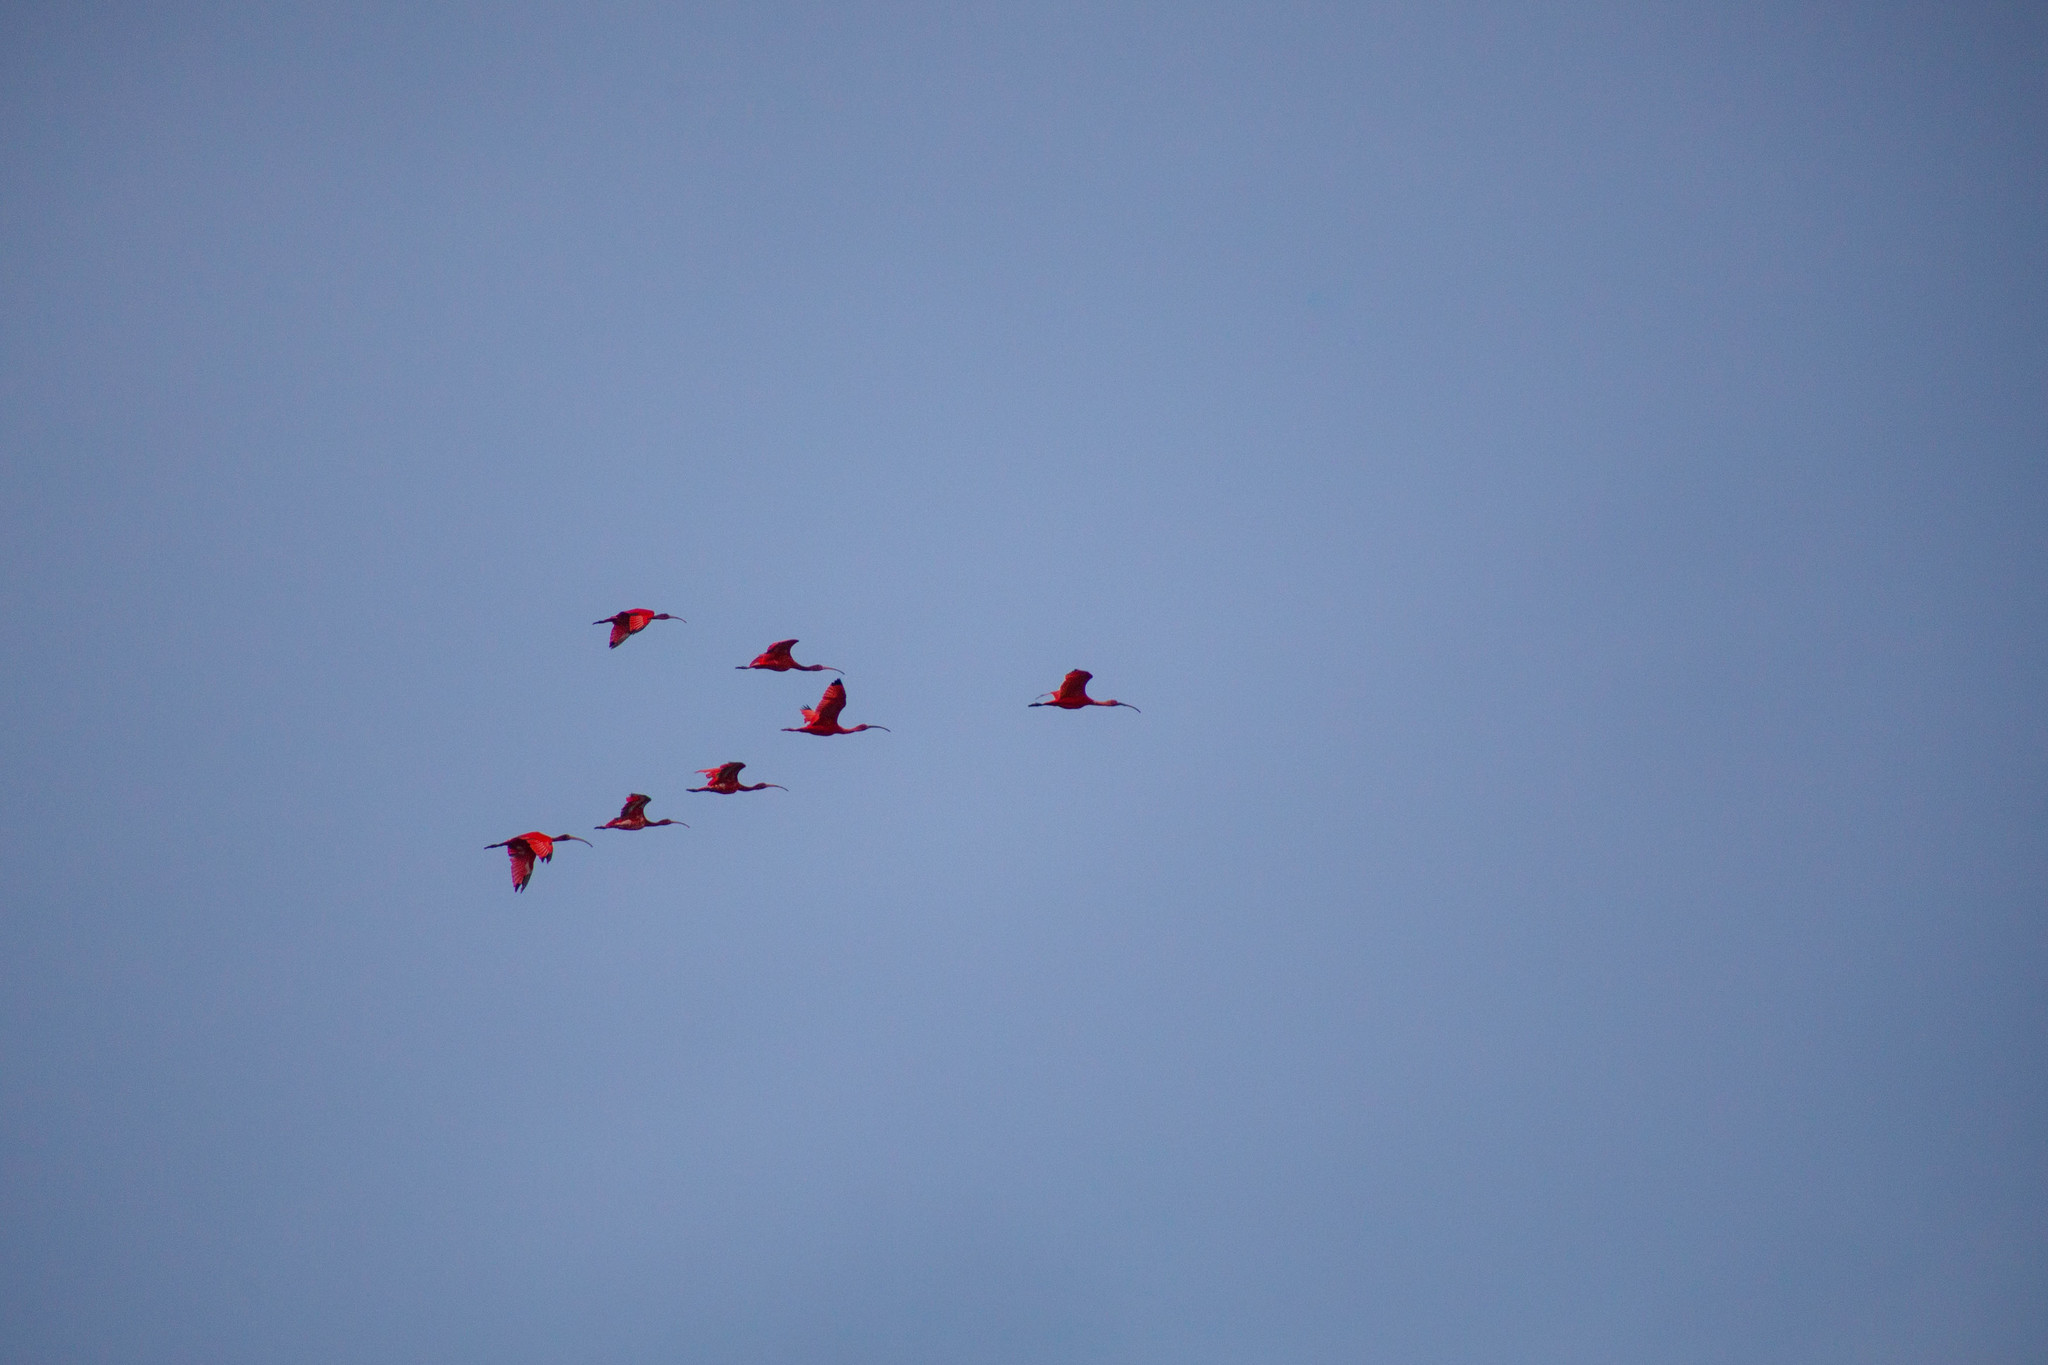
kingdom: Animalia
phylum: Chordata
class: Aves
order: Pelecaniformes
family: Threskiornithidae
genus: Eudocimus
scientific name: Eudocimus ruber
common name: Scarlet ibis
